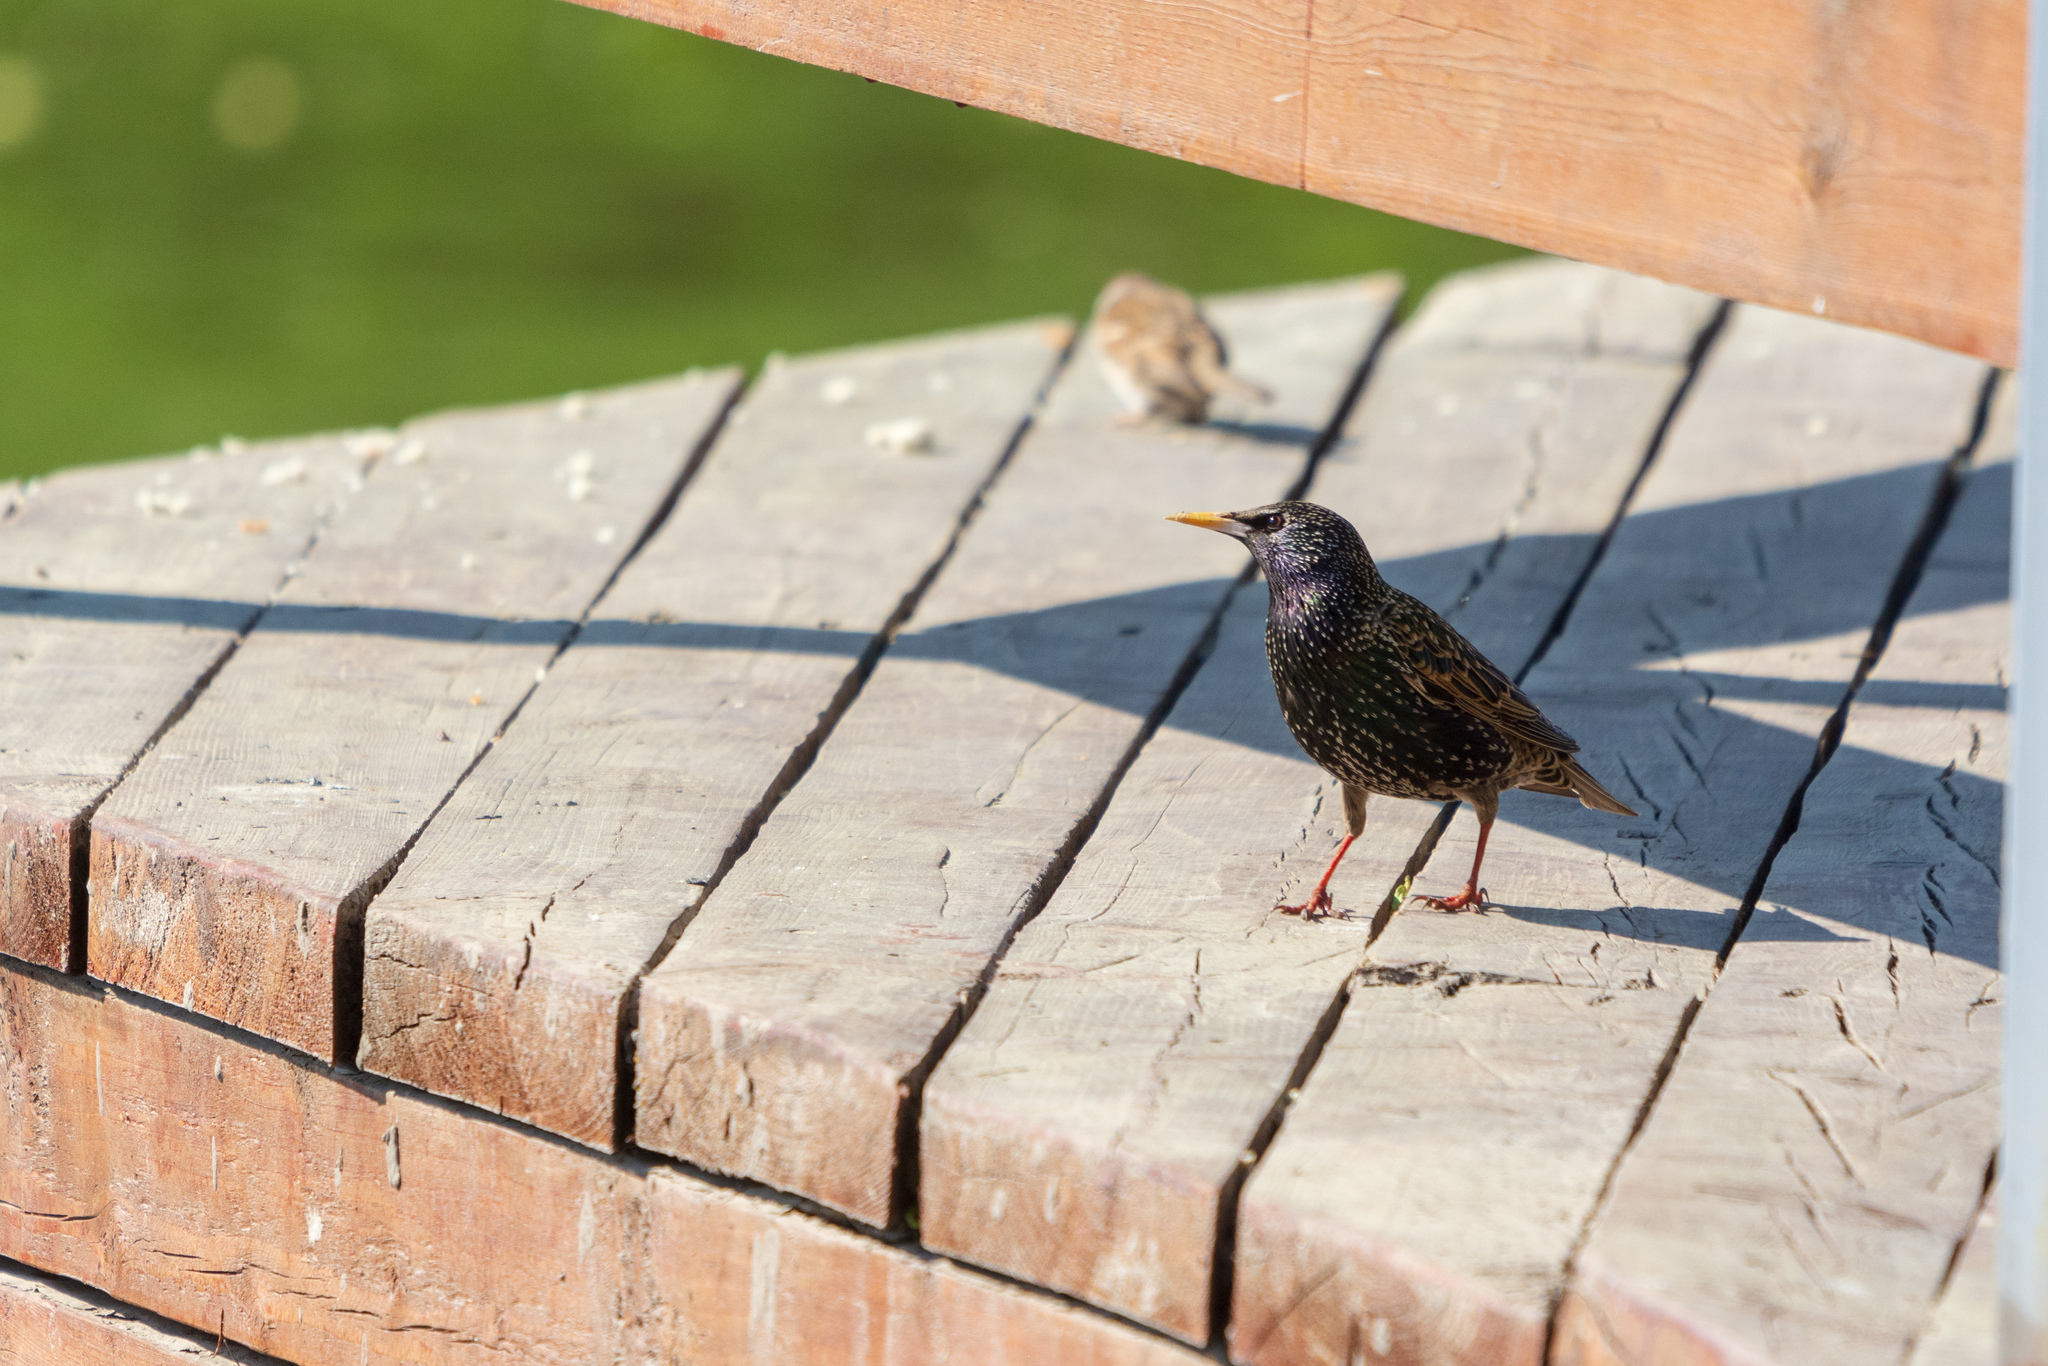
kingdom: Animalia
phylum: Chordata
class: Aves
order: Passeriformes
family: Sturnidae
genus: Sturnus
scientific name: Sturnus vulgaris
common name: Common starling
